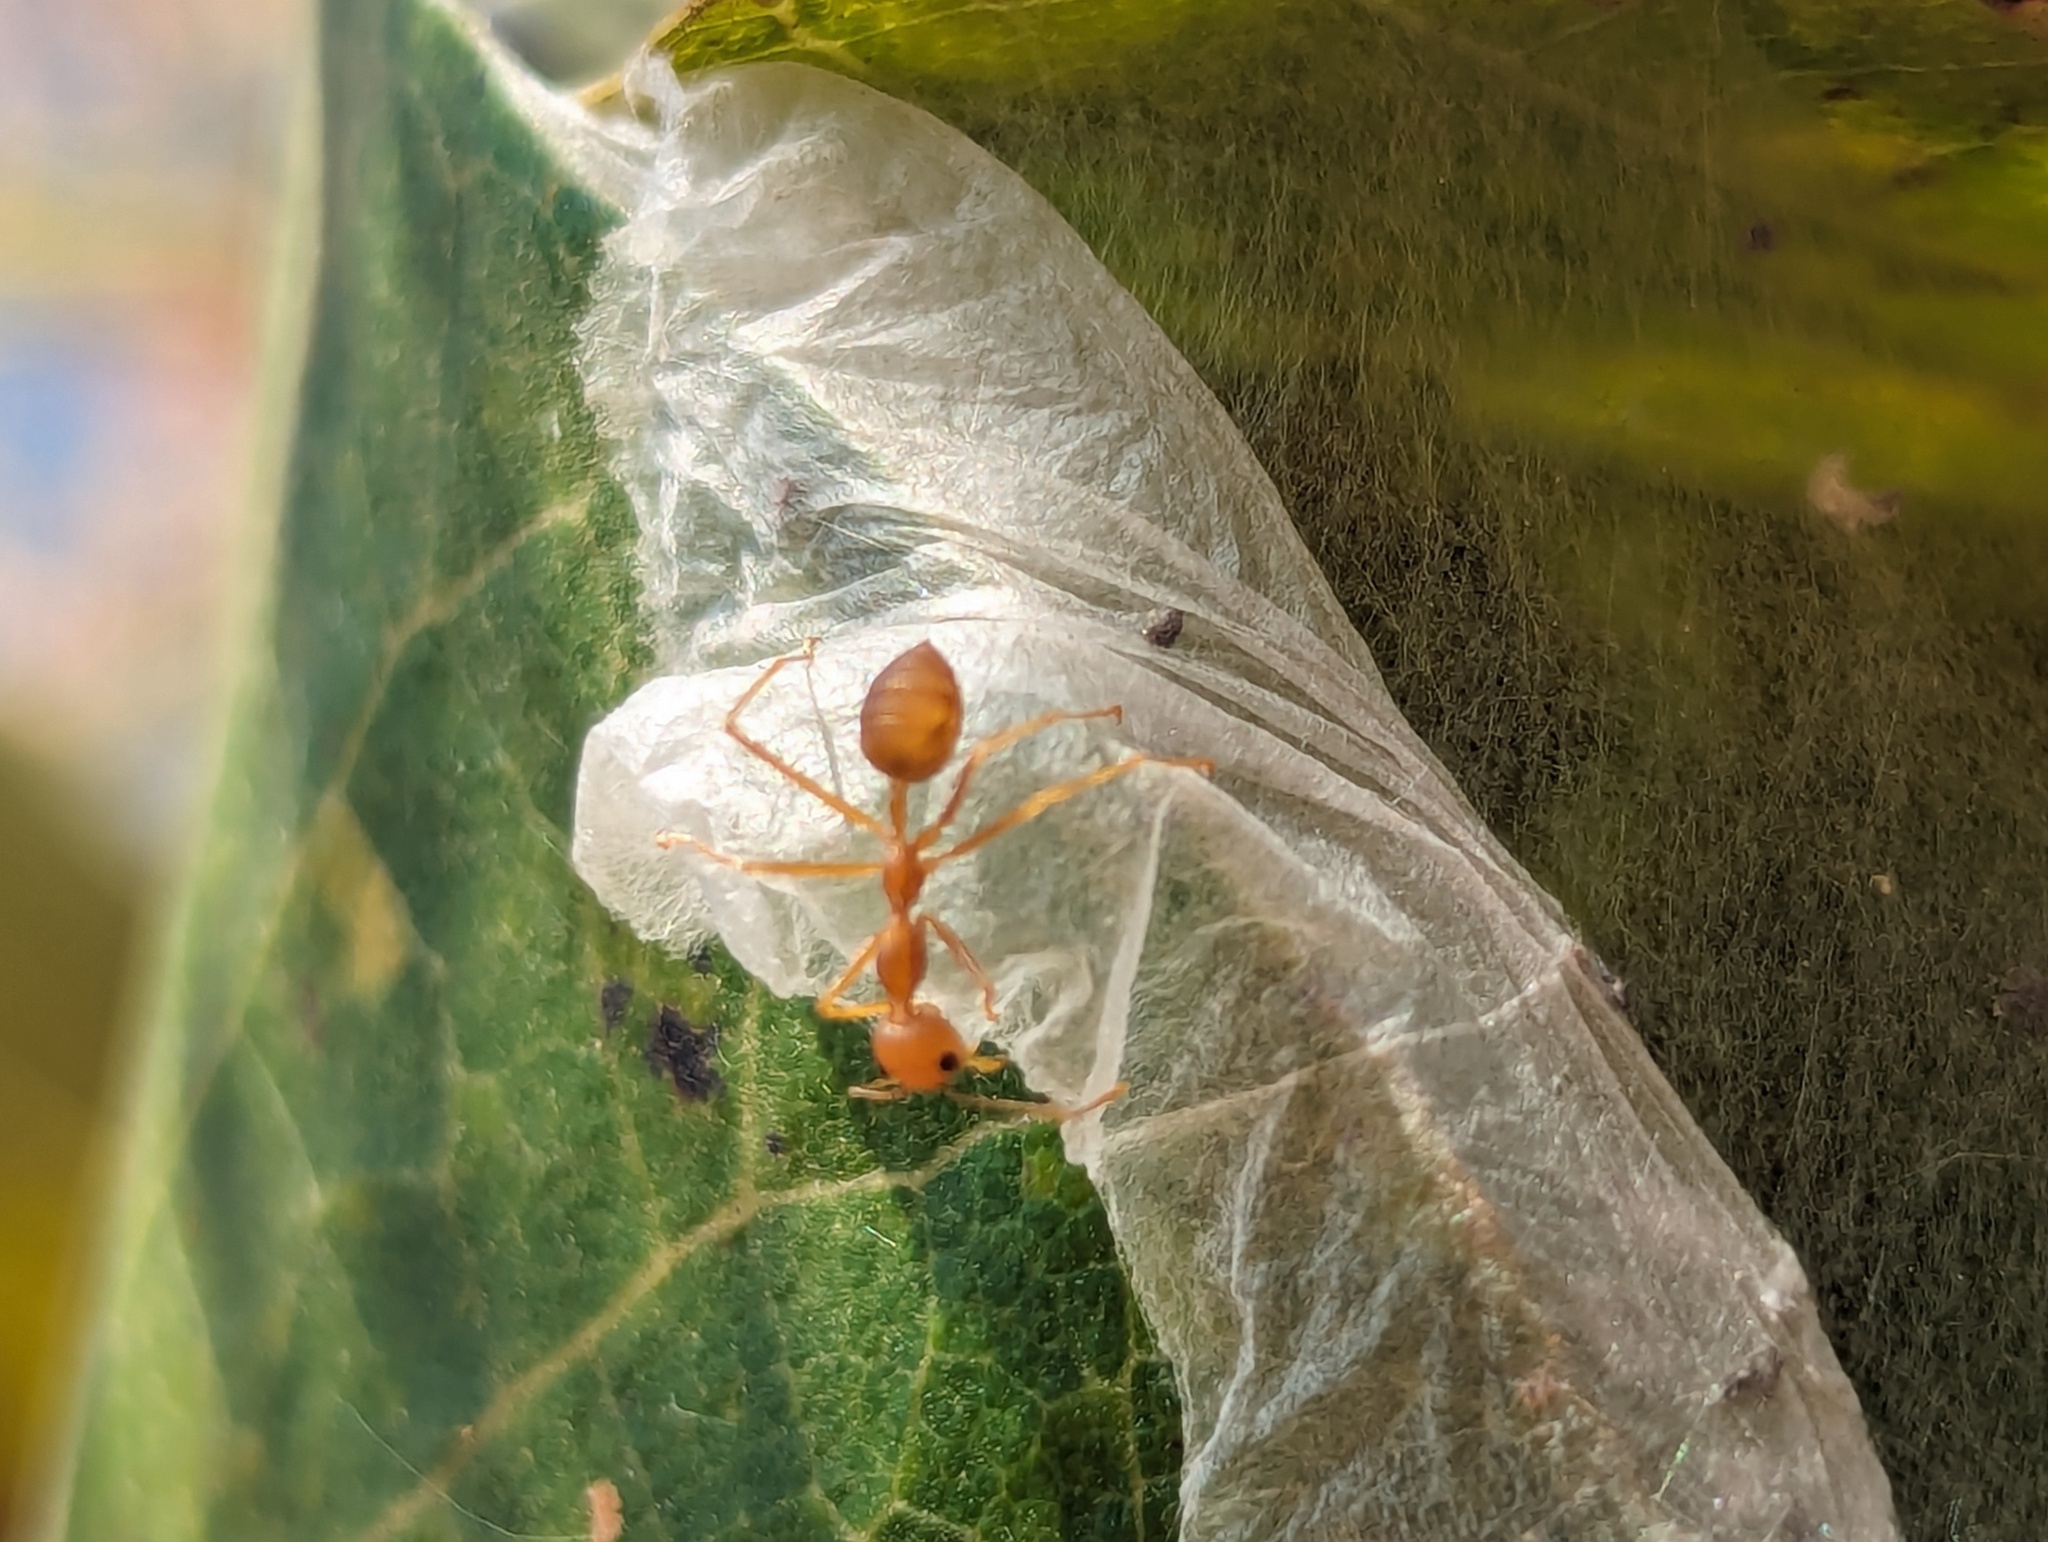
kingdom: Animalia
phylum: Arthropoda
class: Insecta
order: Hymenoptera
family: Formicidae
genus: Oecophylla
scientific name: Oecophylla smaragdina
